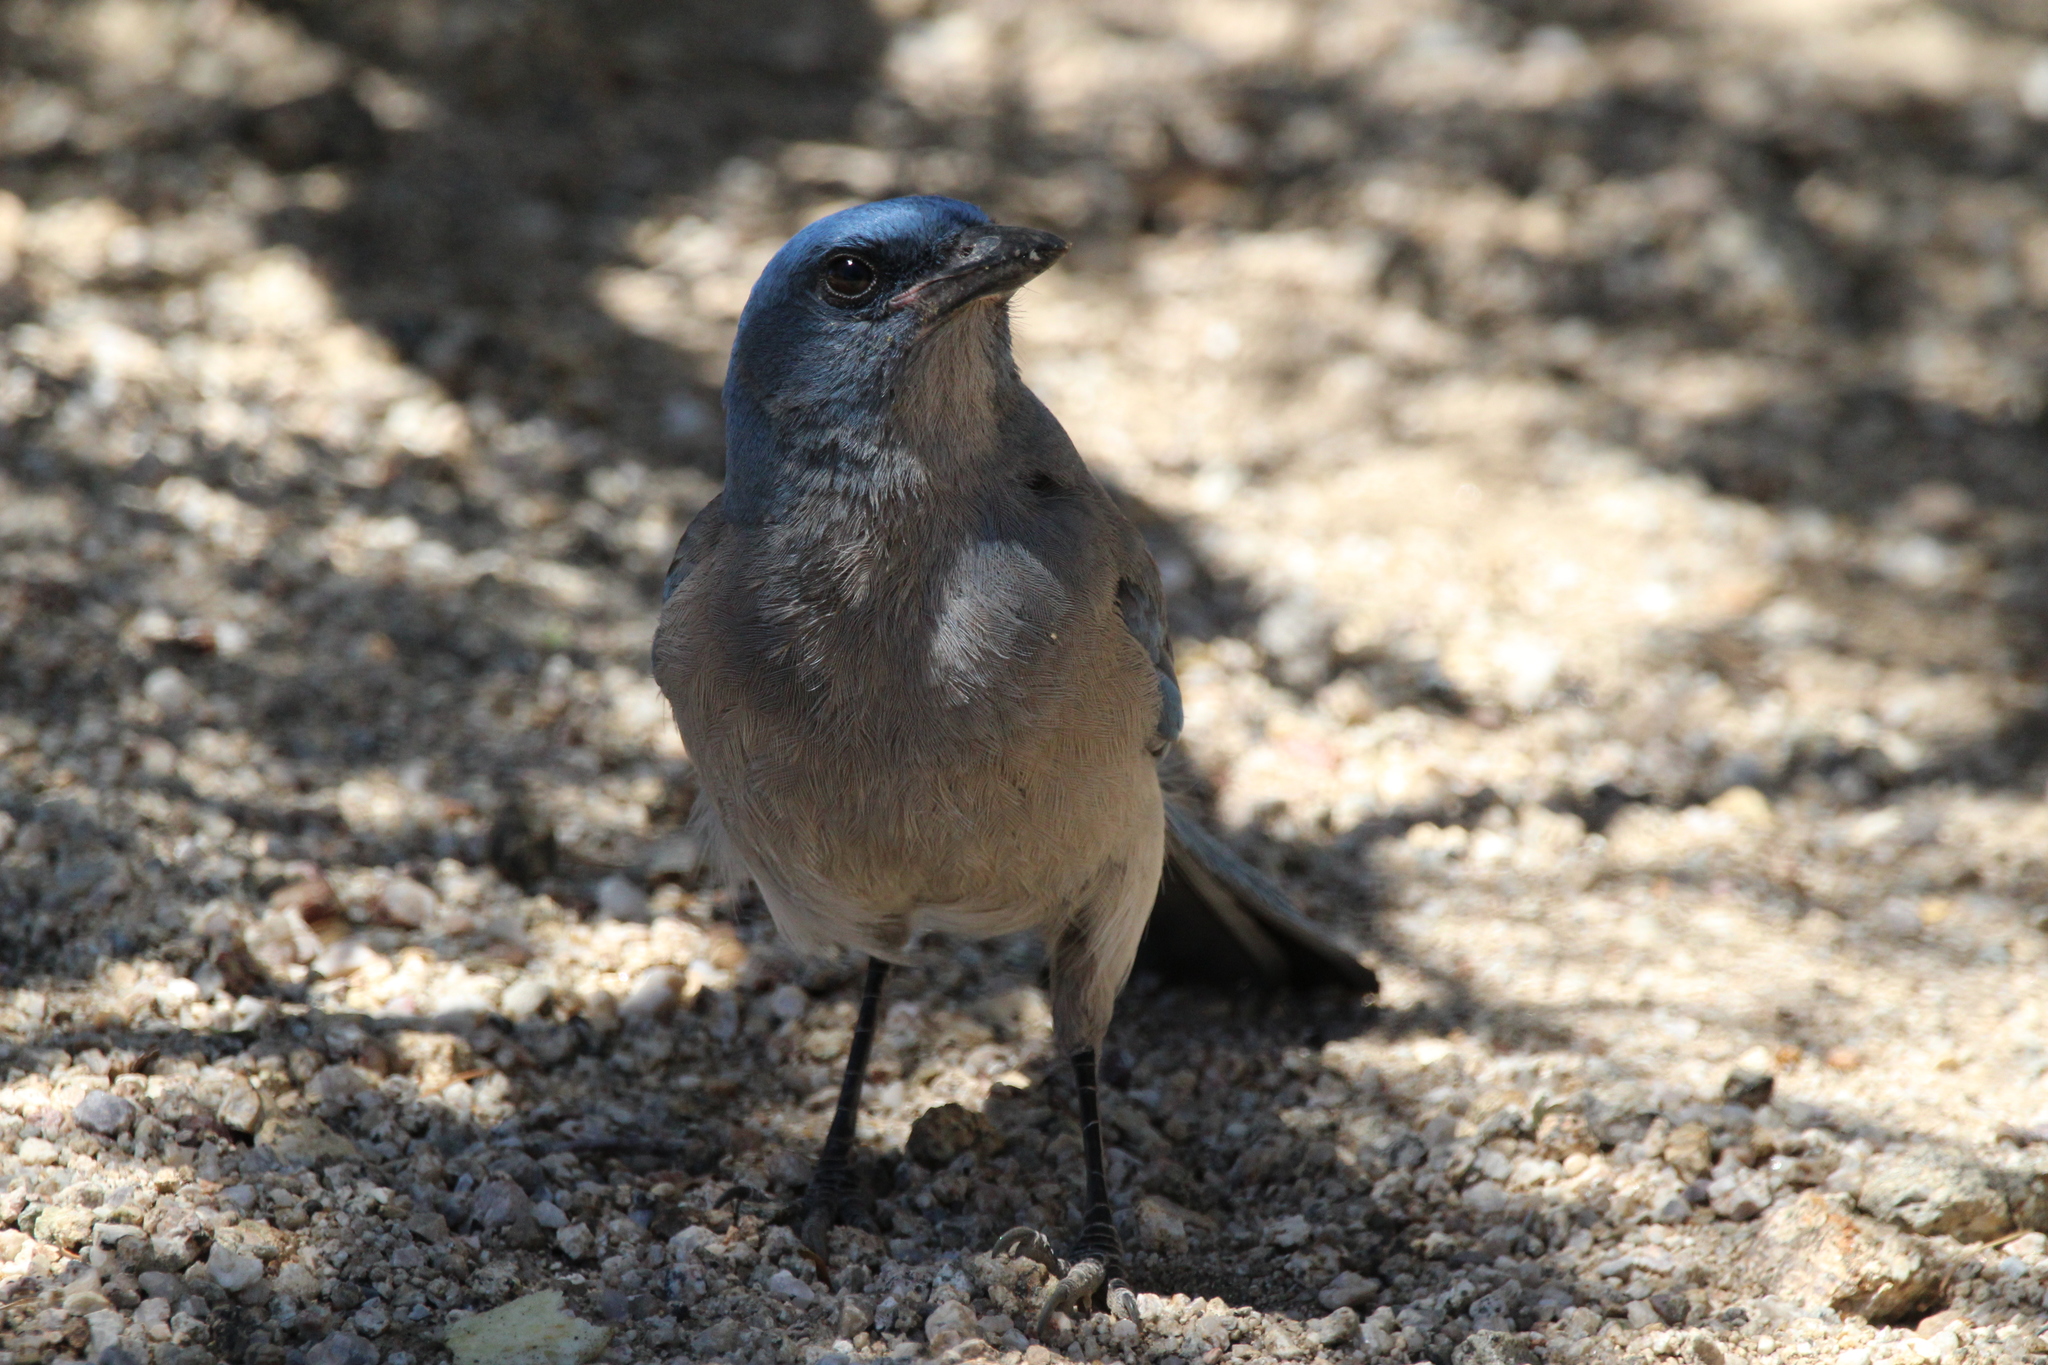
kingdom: Animalia
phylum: Chordata
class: Aves
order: Passeriformes
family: Corvidae
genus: Aphelocoma
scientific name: Aphelocoma wollweberi
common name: Mexican jay
